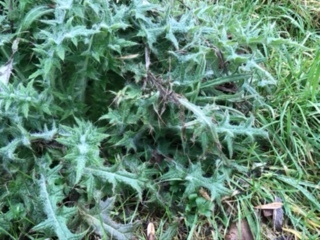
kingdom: Plantae
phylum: Tracheophyta
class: Magnoliopsida
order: Asterales
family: Asteraceae
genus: Cirsium
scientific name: Cirsium vulgare
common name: Bull thistle
